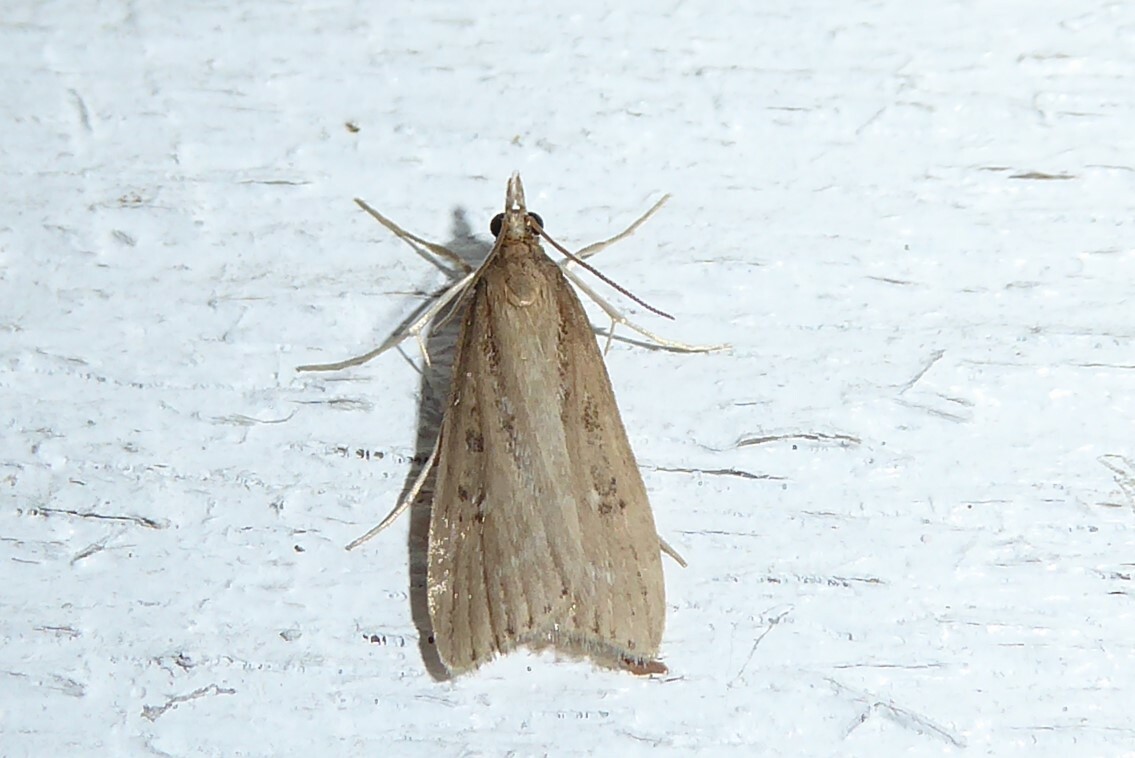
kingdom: Animalia
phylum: Arthropoda
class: Insecta
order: Lepidoptera
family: Crambidae
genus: Eudonia
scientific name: Eudonia octophora
